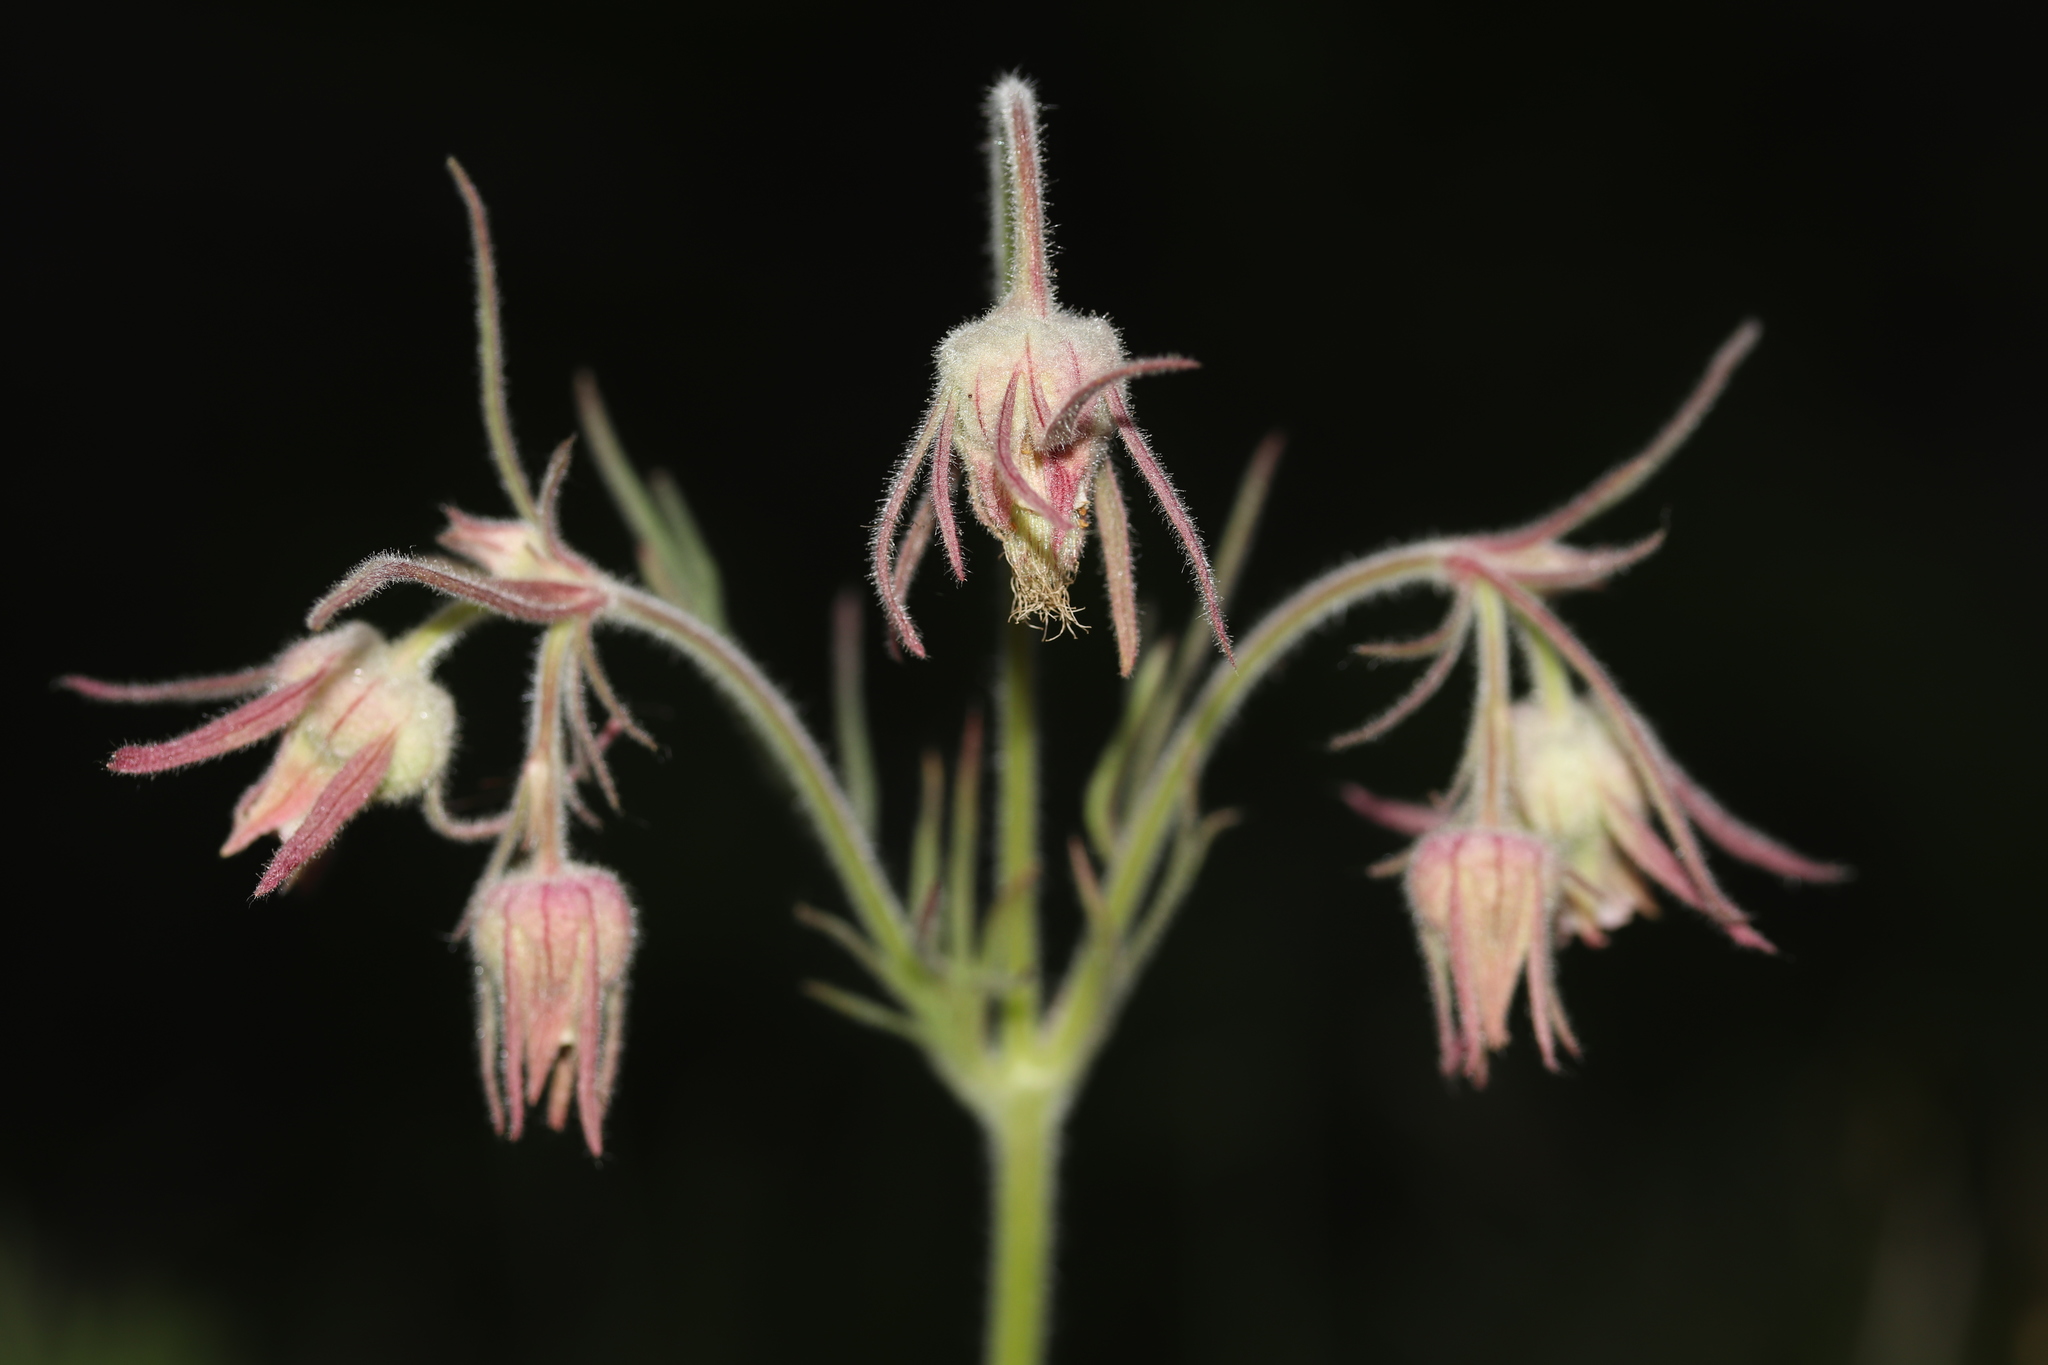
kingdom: Plantae
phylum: Tracheophyta
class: Magnoliopsida
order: Rosales
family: Rosaceae
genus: Geum
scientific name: Geum triflorum
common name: Old man's whiskers
